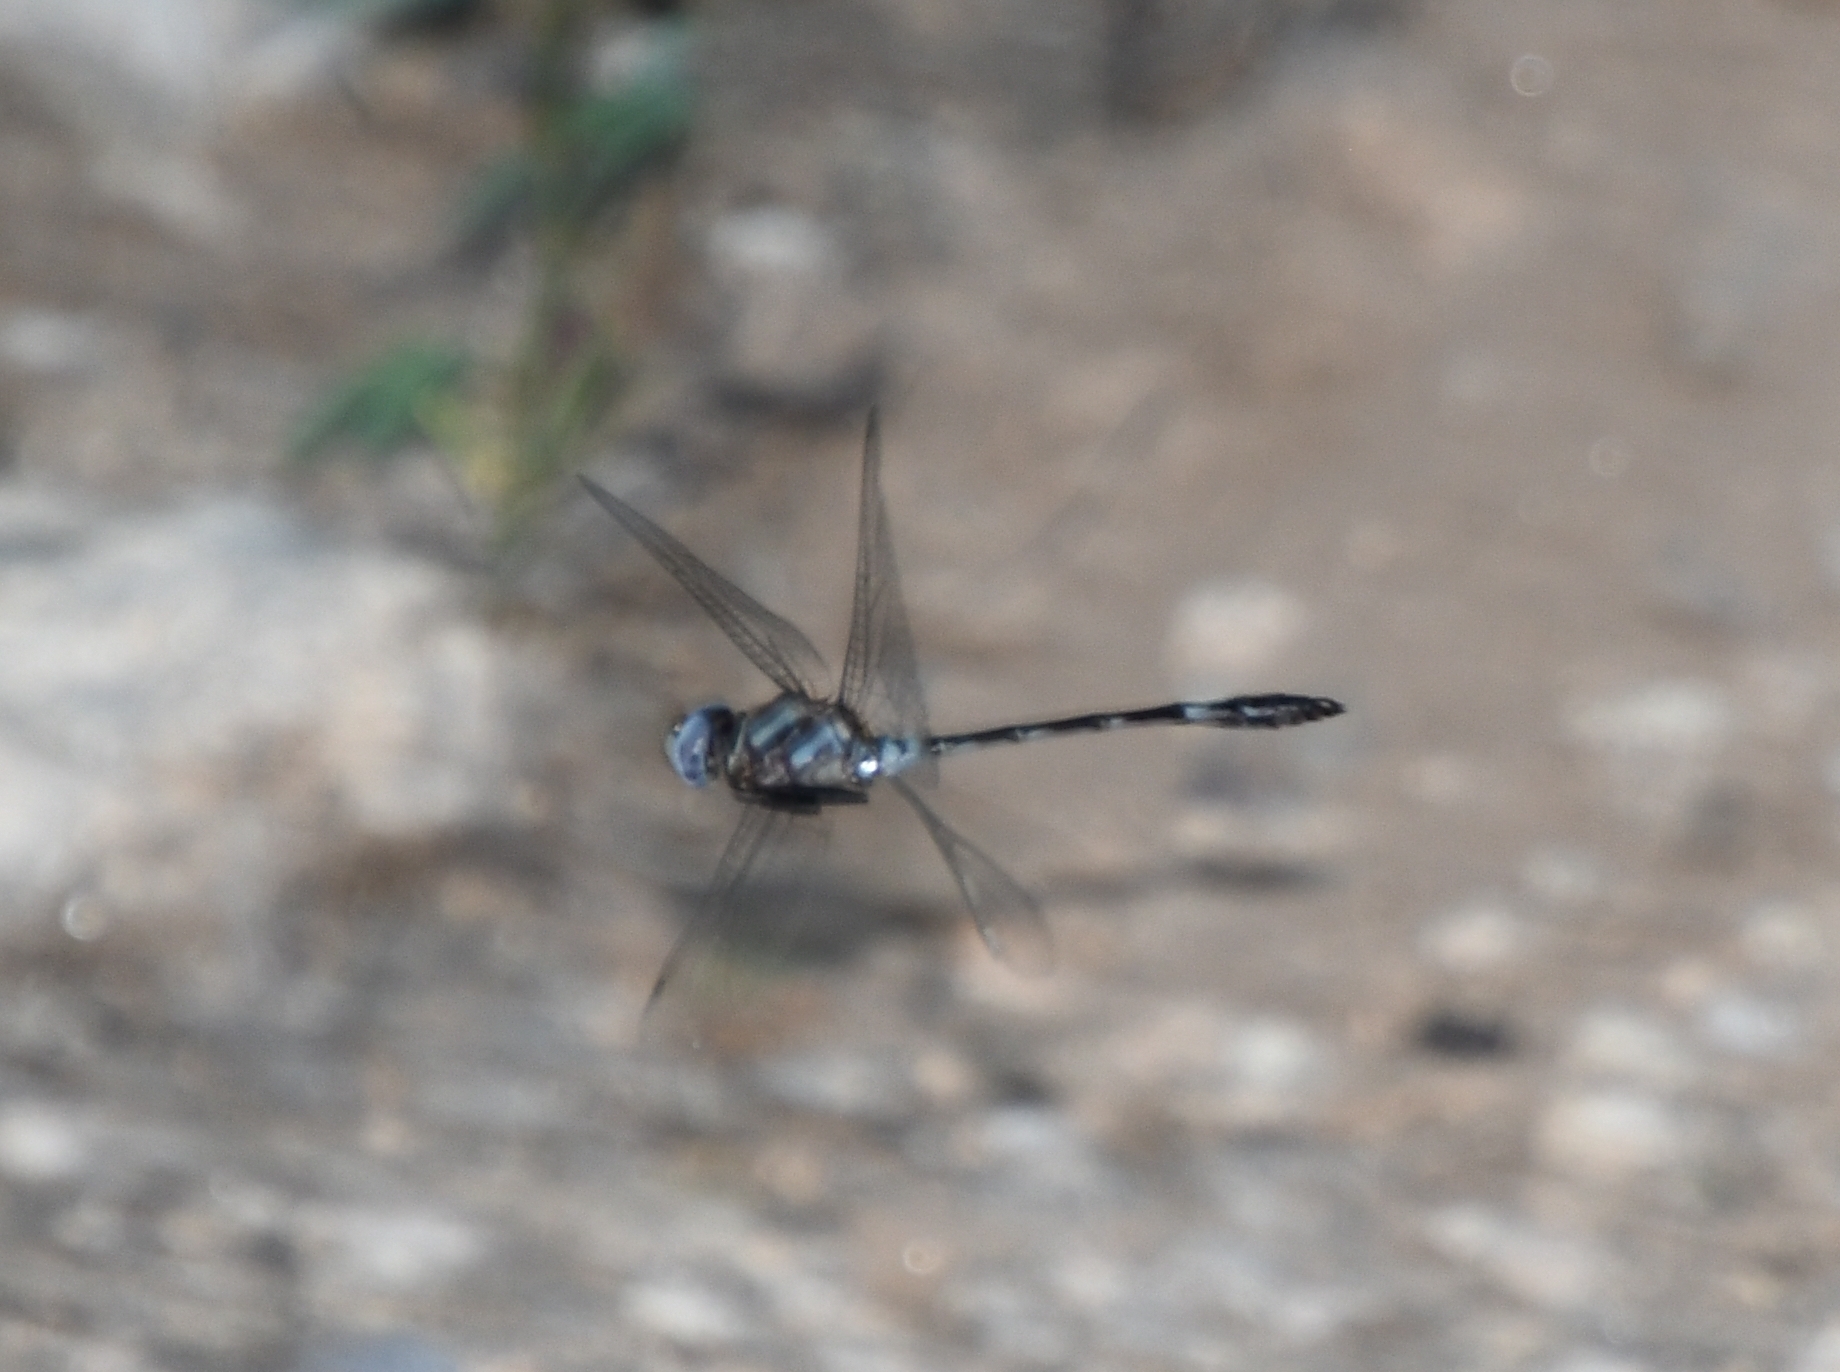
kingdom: Animalia
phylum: Arthropoda
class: Insecta
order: Odonata
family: Libellulidae
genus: Brechmorhoga
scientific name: Brechmorhoga mendax
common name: Pale-faced clubskimmer
